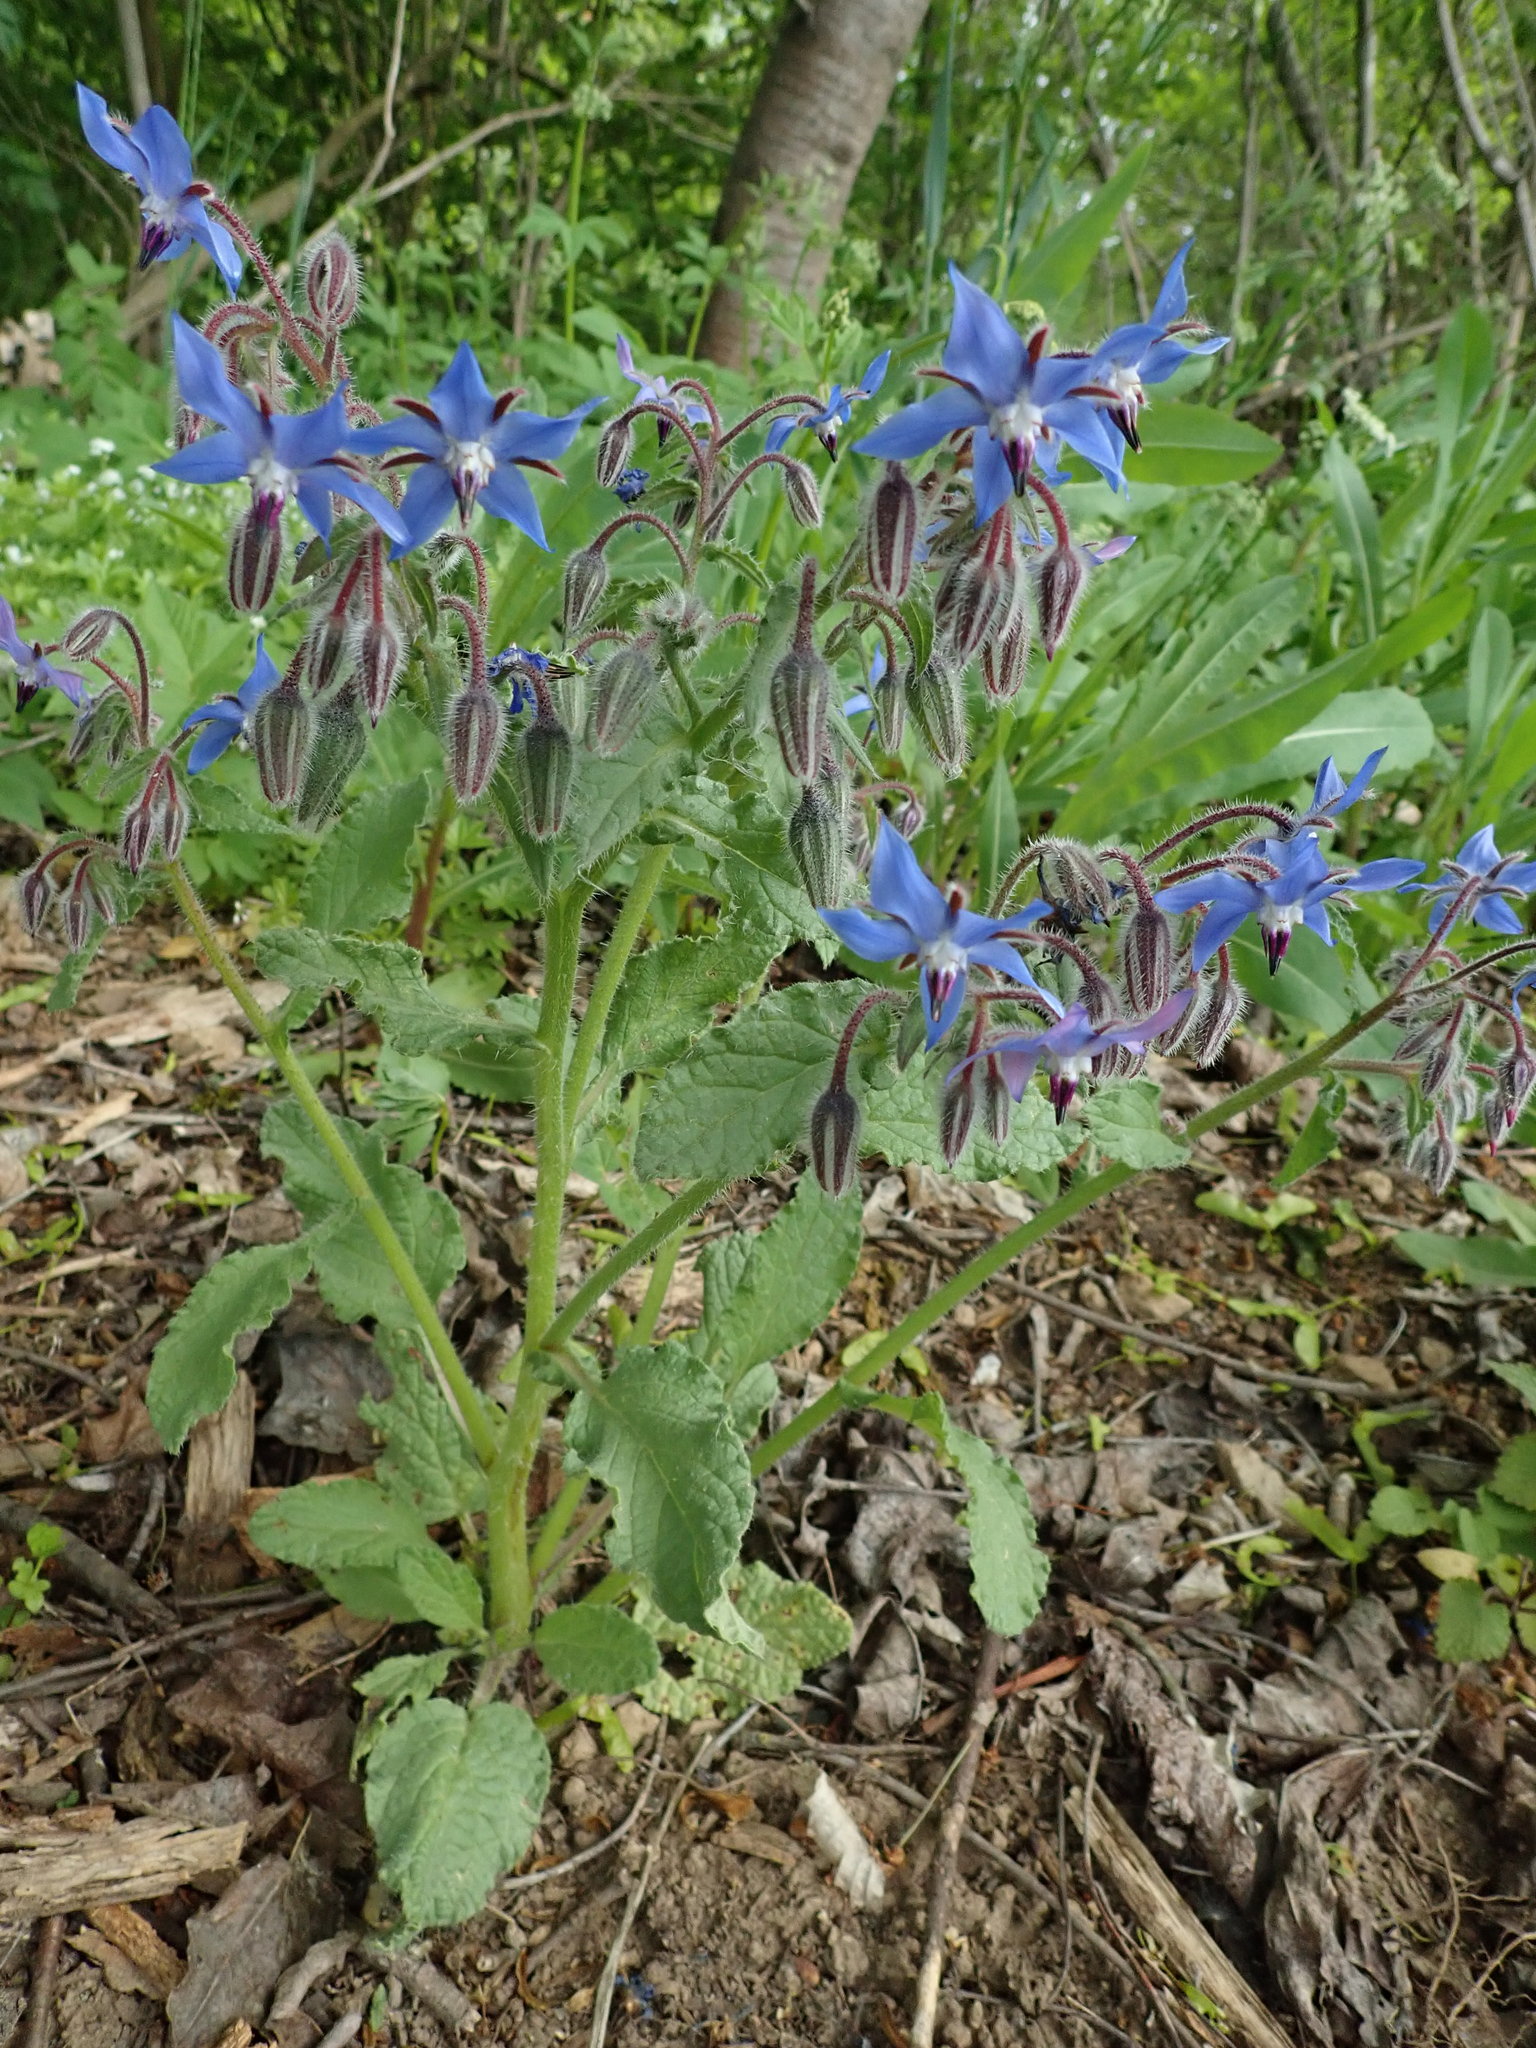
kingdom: Plantae
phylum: Tracheophyta
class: Magnoliopsida
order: Boraginales
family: Boraginaceae
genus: Borago
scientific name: Borago officinalis
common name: Borage
